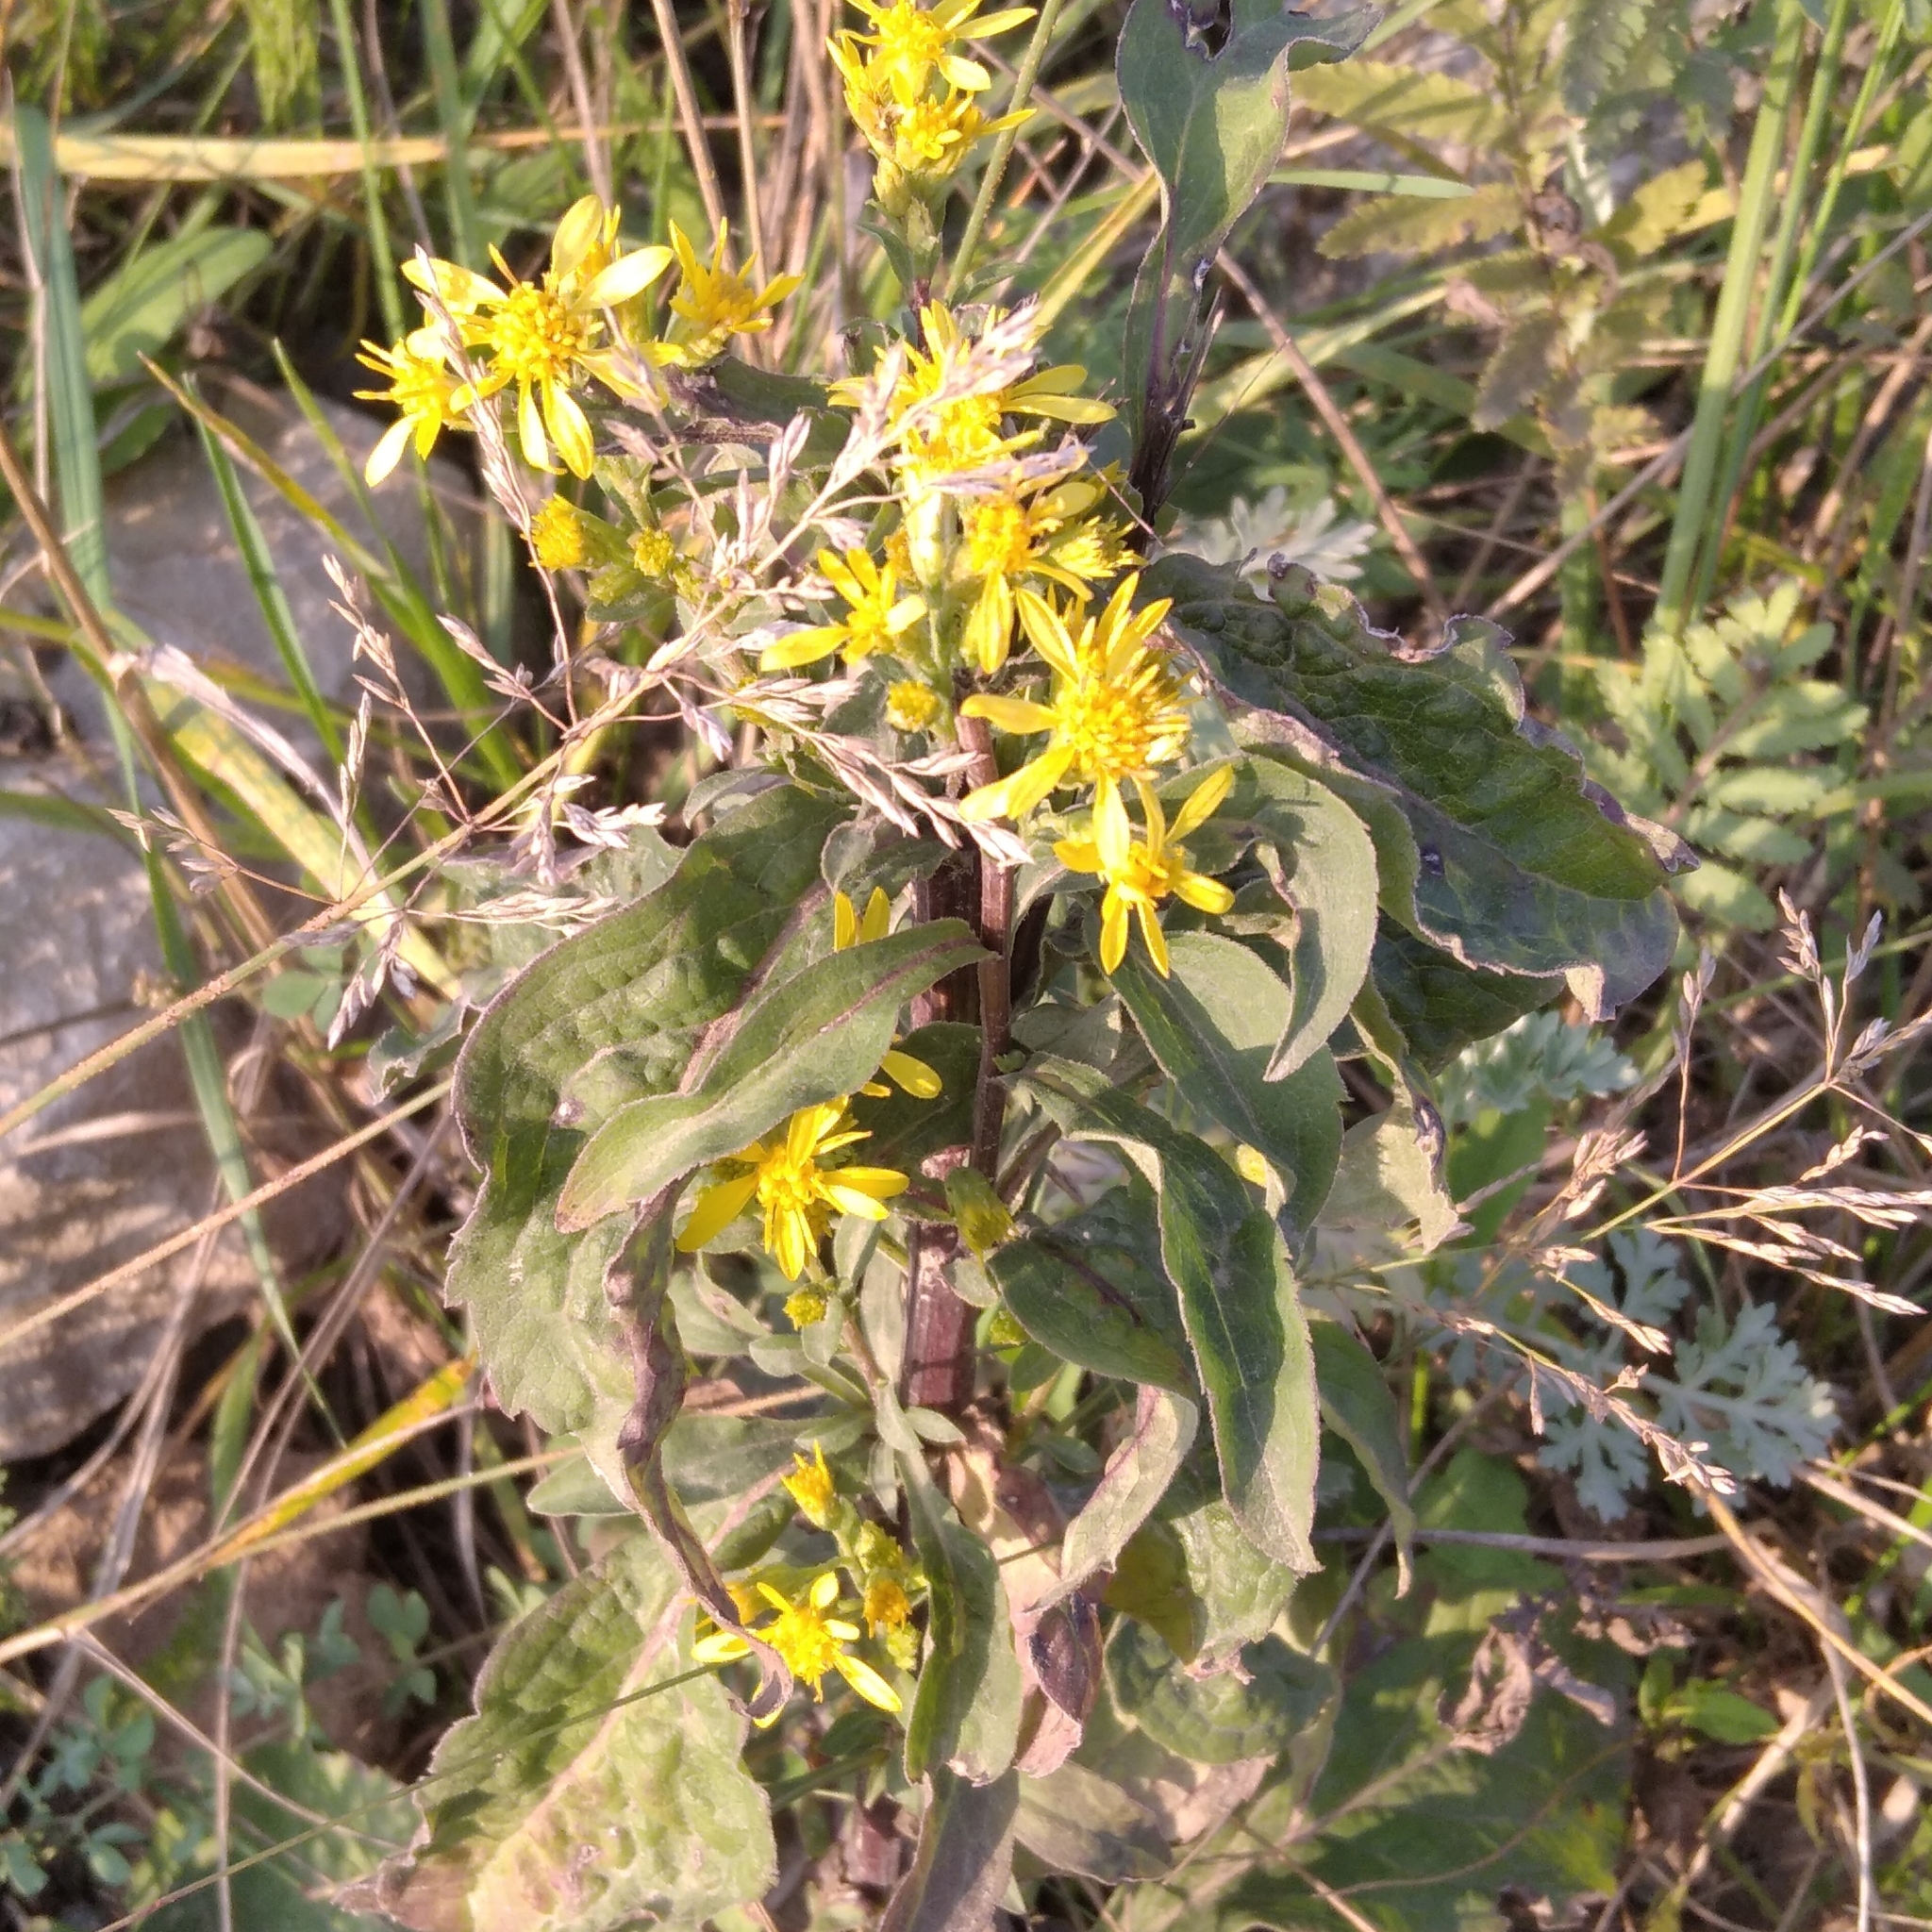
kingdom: Plantae
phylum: Tracheophyta
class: Magnoliopsida
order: Asterales
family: Asteraceae
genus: Solidago
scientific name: Solidago virgaurea
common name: Goldenrod
